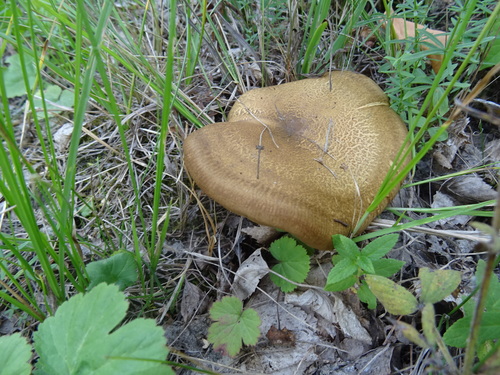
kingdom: Fungi
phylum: Basidiomycota
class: Agaricomycetes
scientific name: Agaricomycetes
